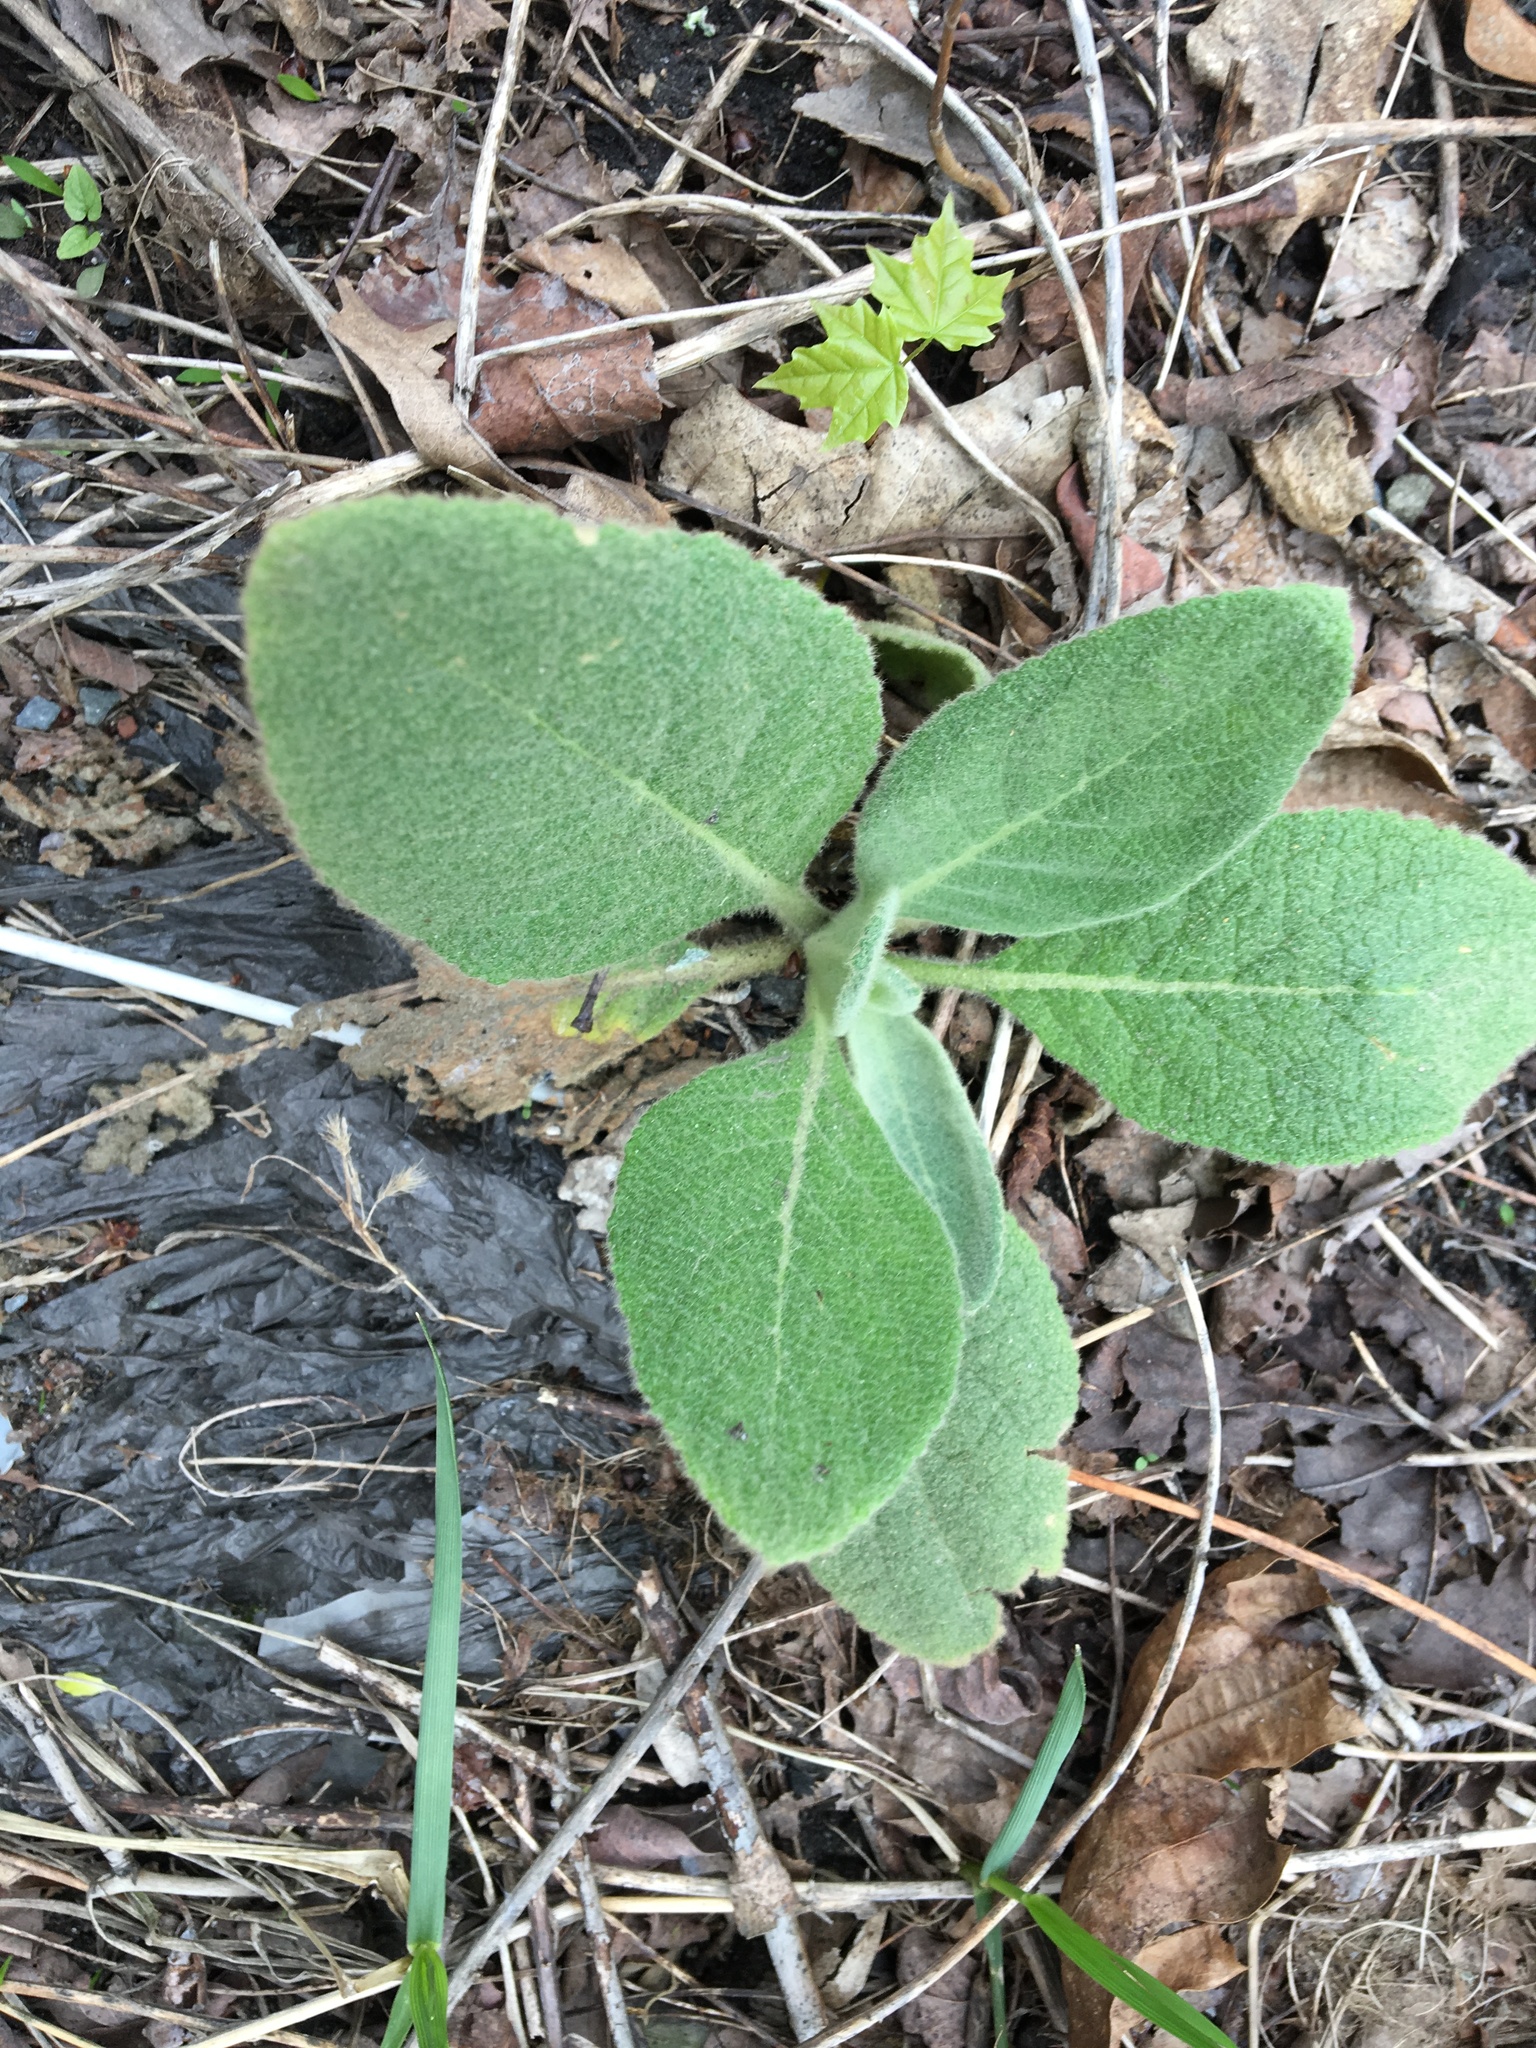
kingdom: Plantae
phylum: Tracheophyta
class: Magnoliopsida
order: Lamiales
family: Scrophulariaceae
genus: Verbascum
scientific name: Verbascum thapsus
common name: Common mullein
